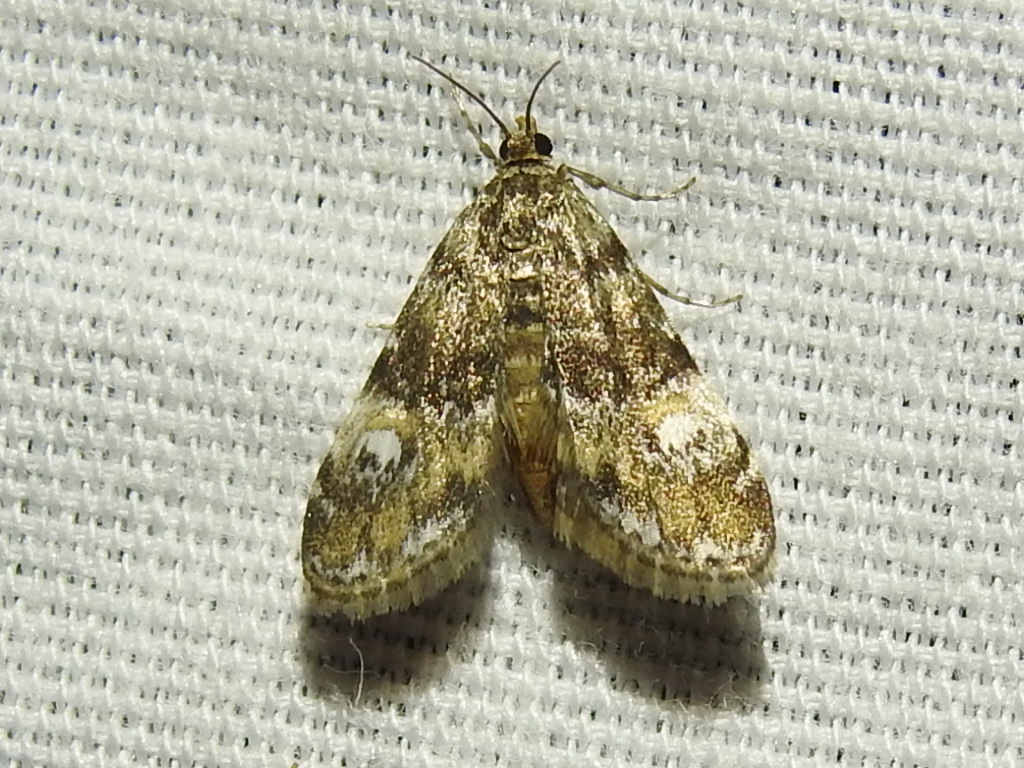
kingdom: Animalia
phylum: Arthropoda
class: Insecta
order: Lepidoptera
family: Crambidae
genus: Elophila
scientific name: Elophila obliteralis
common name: Waterlily leafcutter moth
